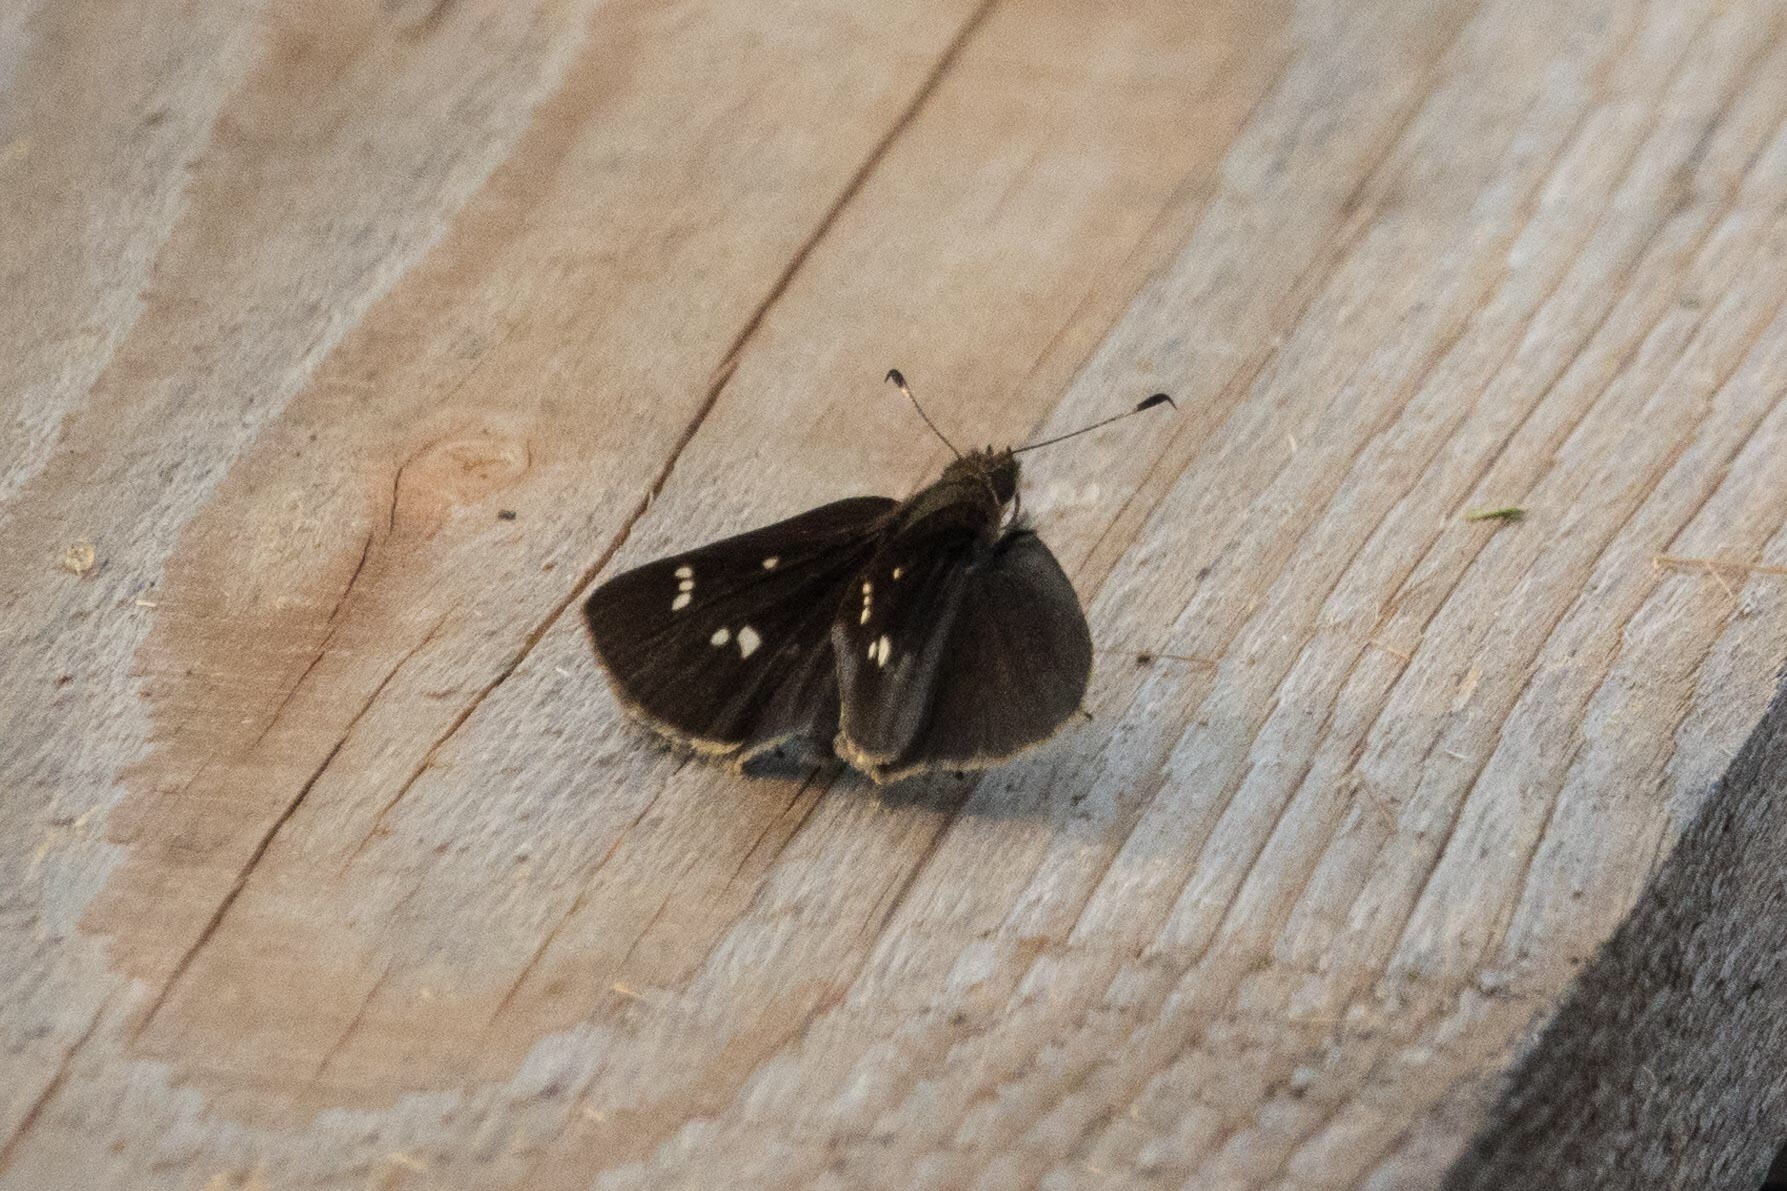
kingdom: Animalia
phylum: Arthropoda
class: Insecta
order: Lepidoptera
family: Hesperiidae
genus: Lerema
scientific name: Lerema accius
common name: Clouded skipper
